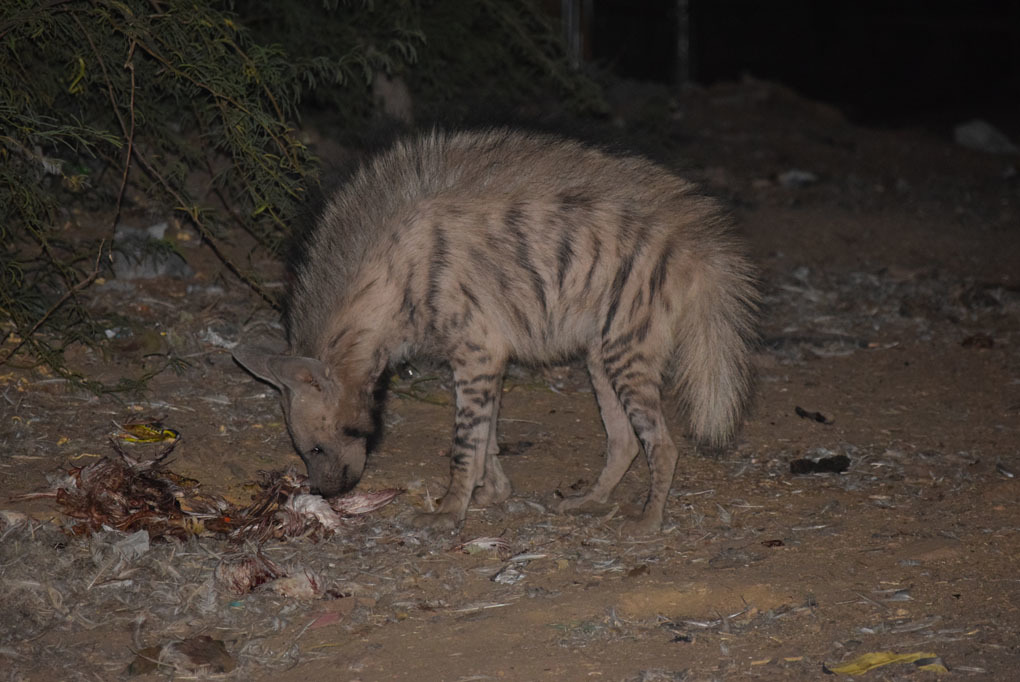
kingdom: Animalia
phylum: Chordata
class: Mammalia
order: Carnivora
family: Hyaenidae
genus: Hyaena
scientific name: Hyaena hyaena
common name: Striped hyaena
